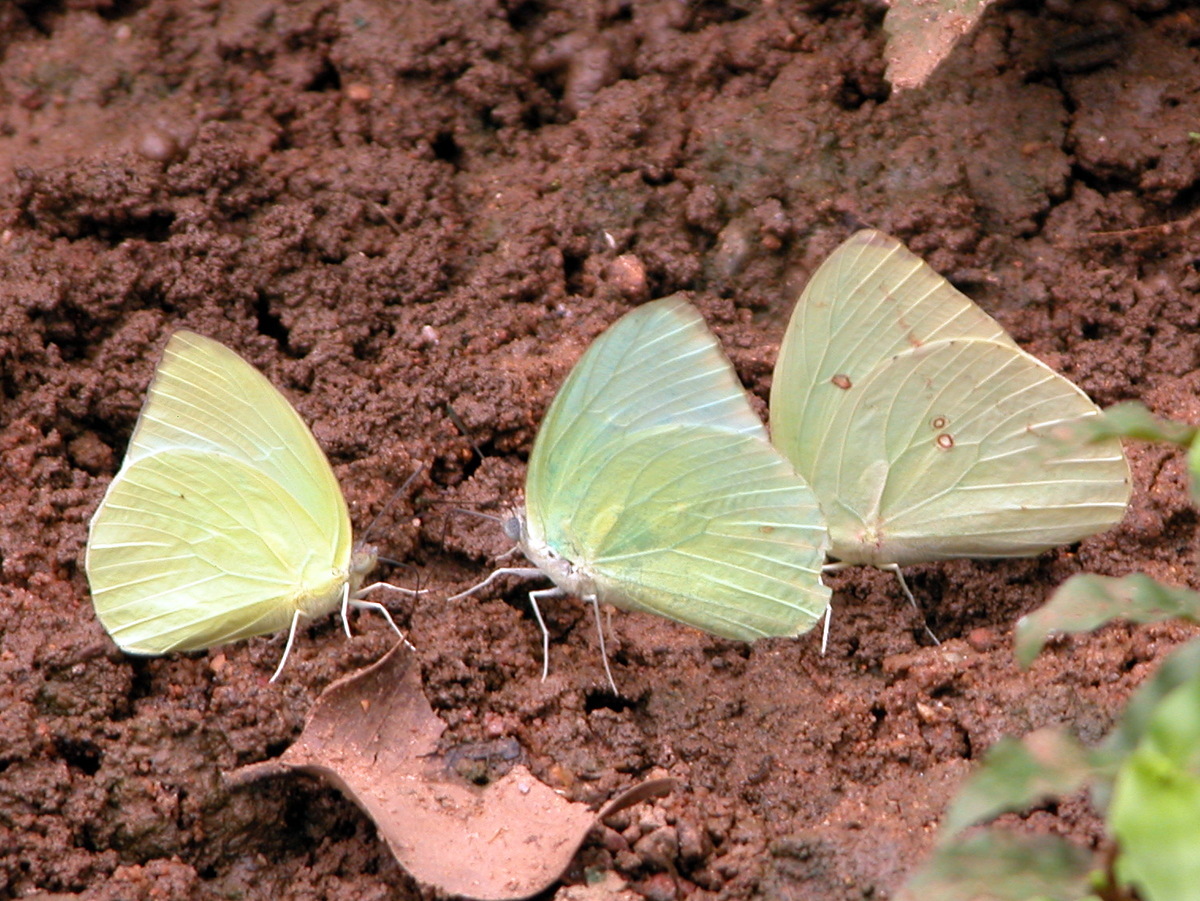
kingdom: Animalia
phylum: Arthropoda
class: Insecta
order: Lepidoptera
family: Pieridae
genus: Catopsilia
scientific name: Catopsilia pomona
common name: Common emigrant
